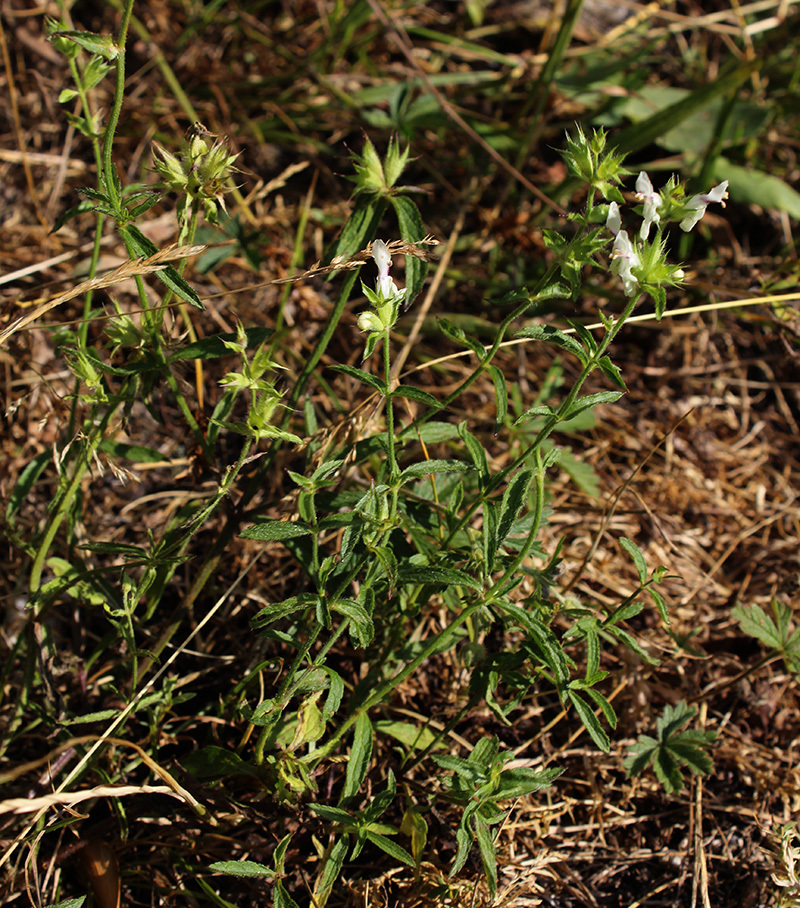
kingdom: Plantae
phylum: Tracheophyta
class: Magnoliopsida
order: Lamiales
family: Lamiaceae
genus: Stachys
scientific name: Stachys atherocalyx
